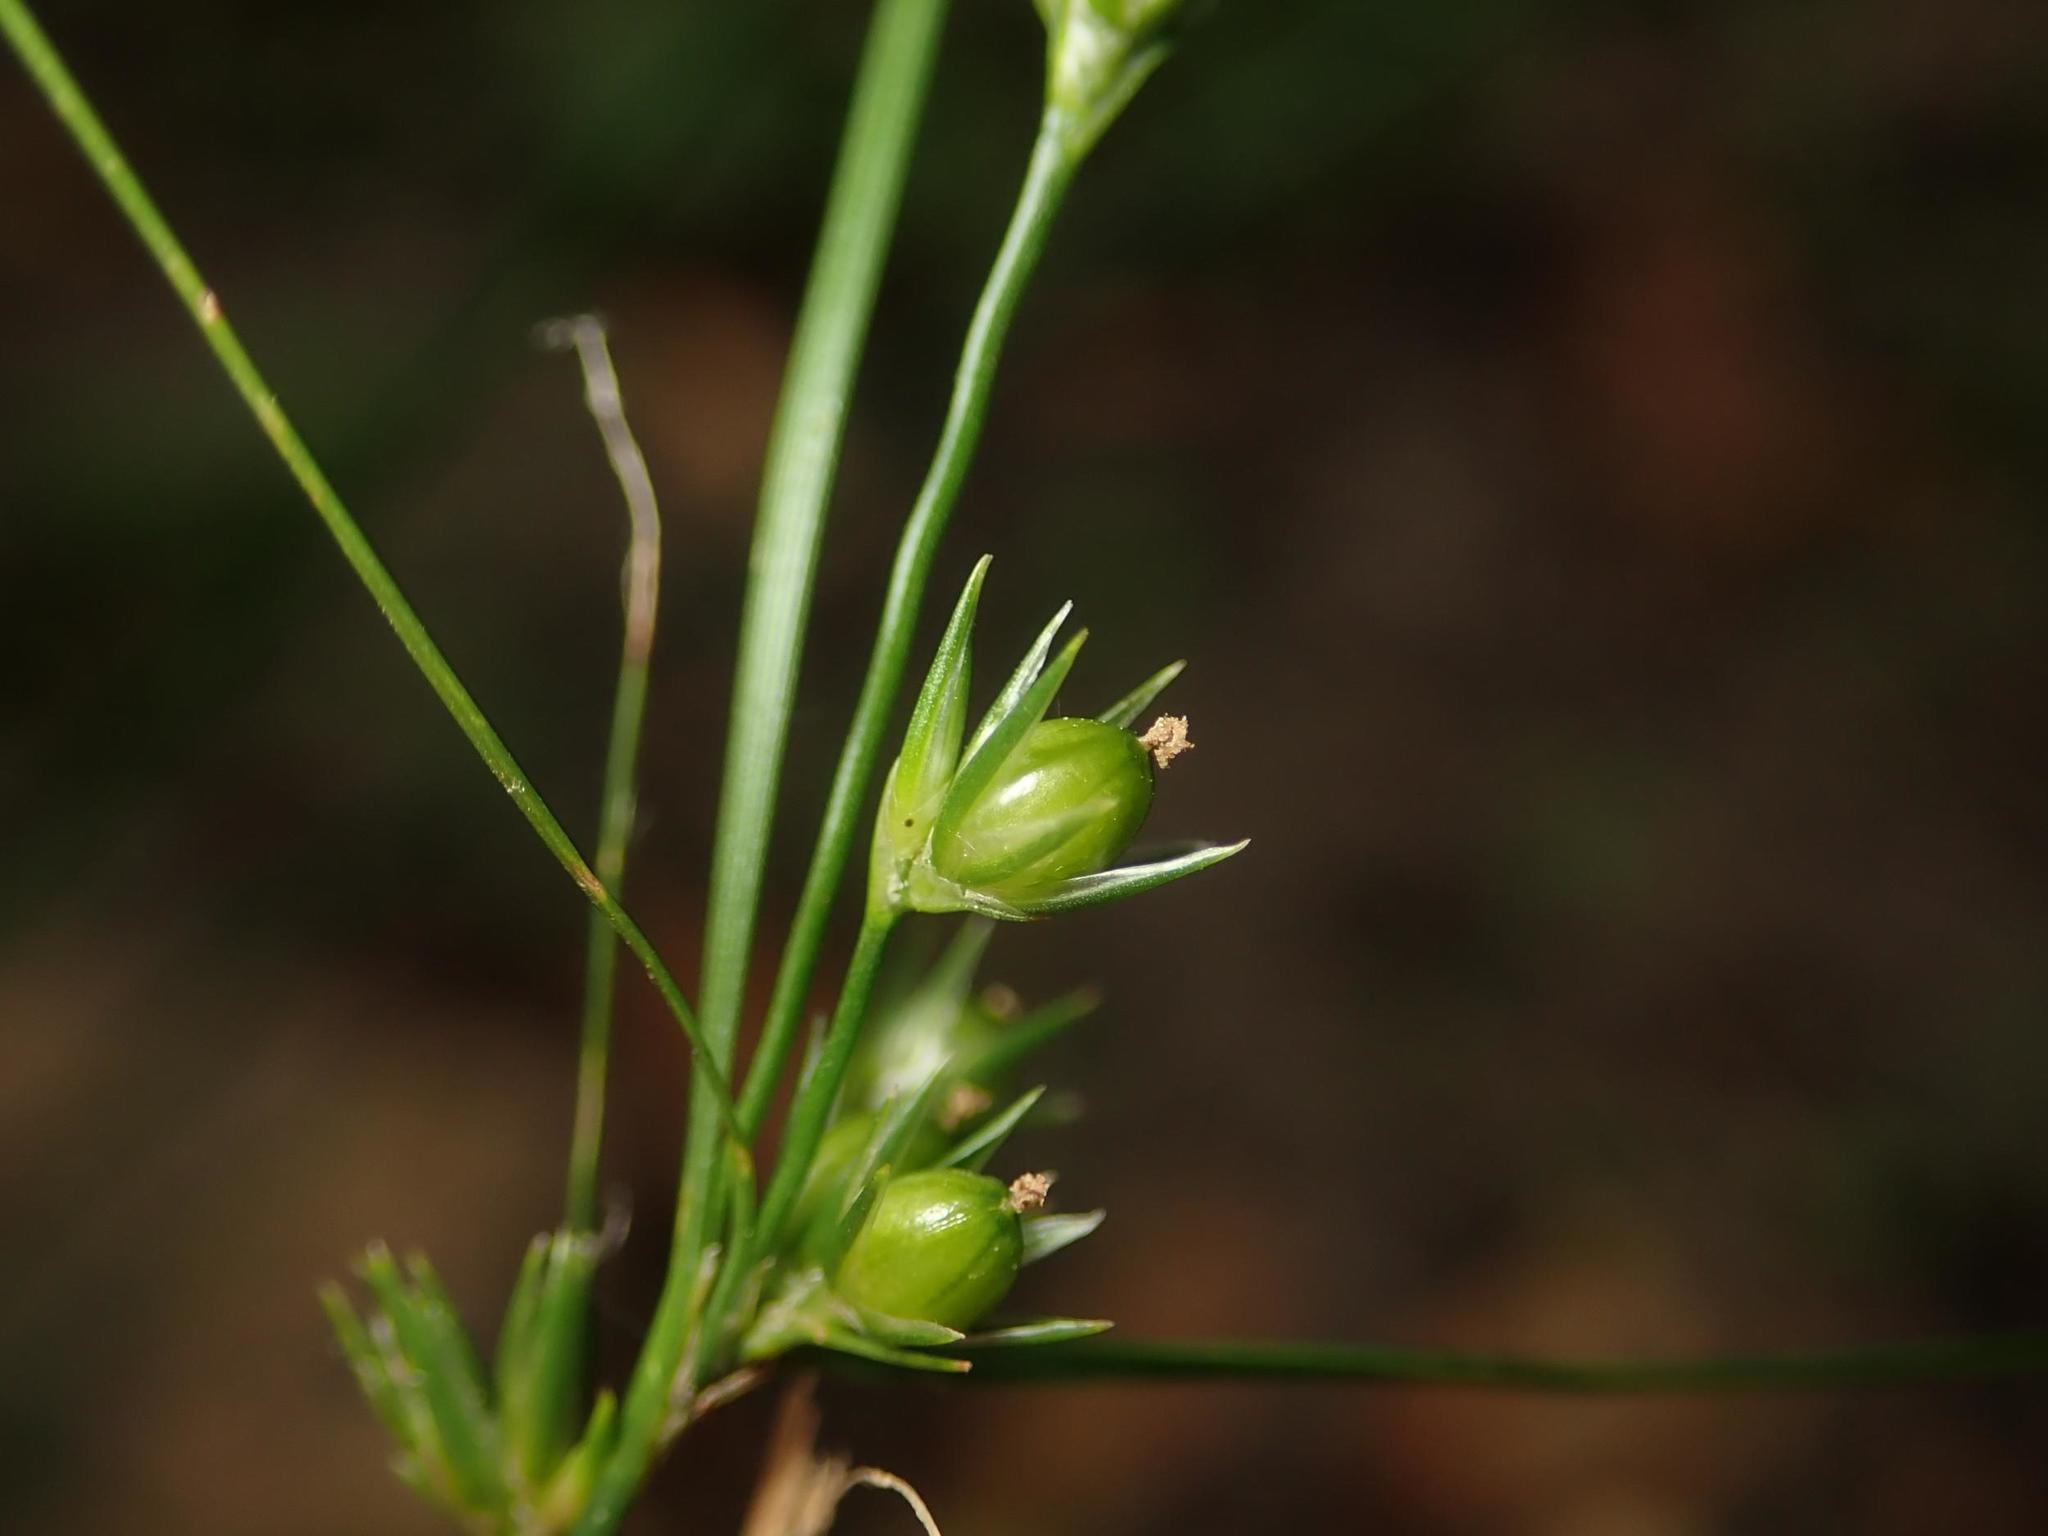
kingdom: Plantae
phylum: Tracheophyta
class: Liliopsida
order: Poales
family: Juncaceae
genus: Juncus
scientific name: Juncus tenuis
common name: Slender rush
